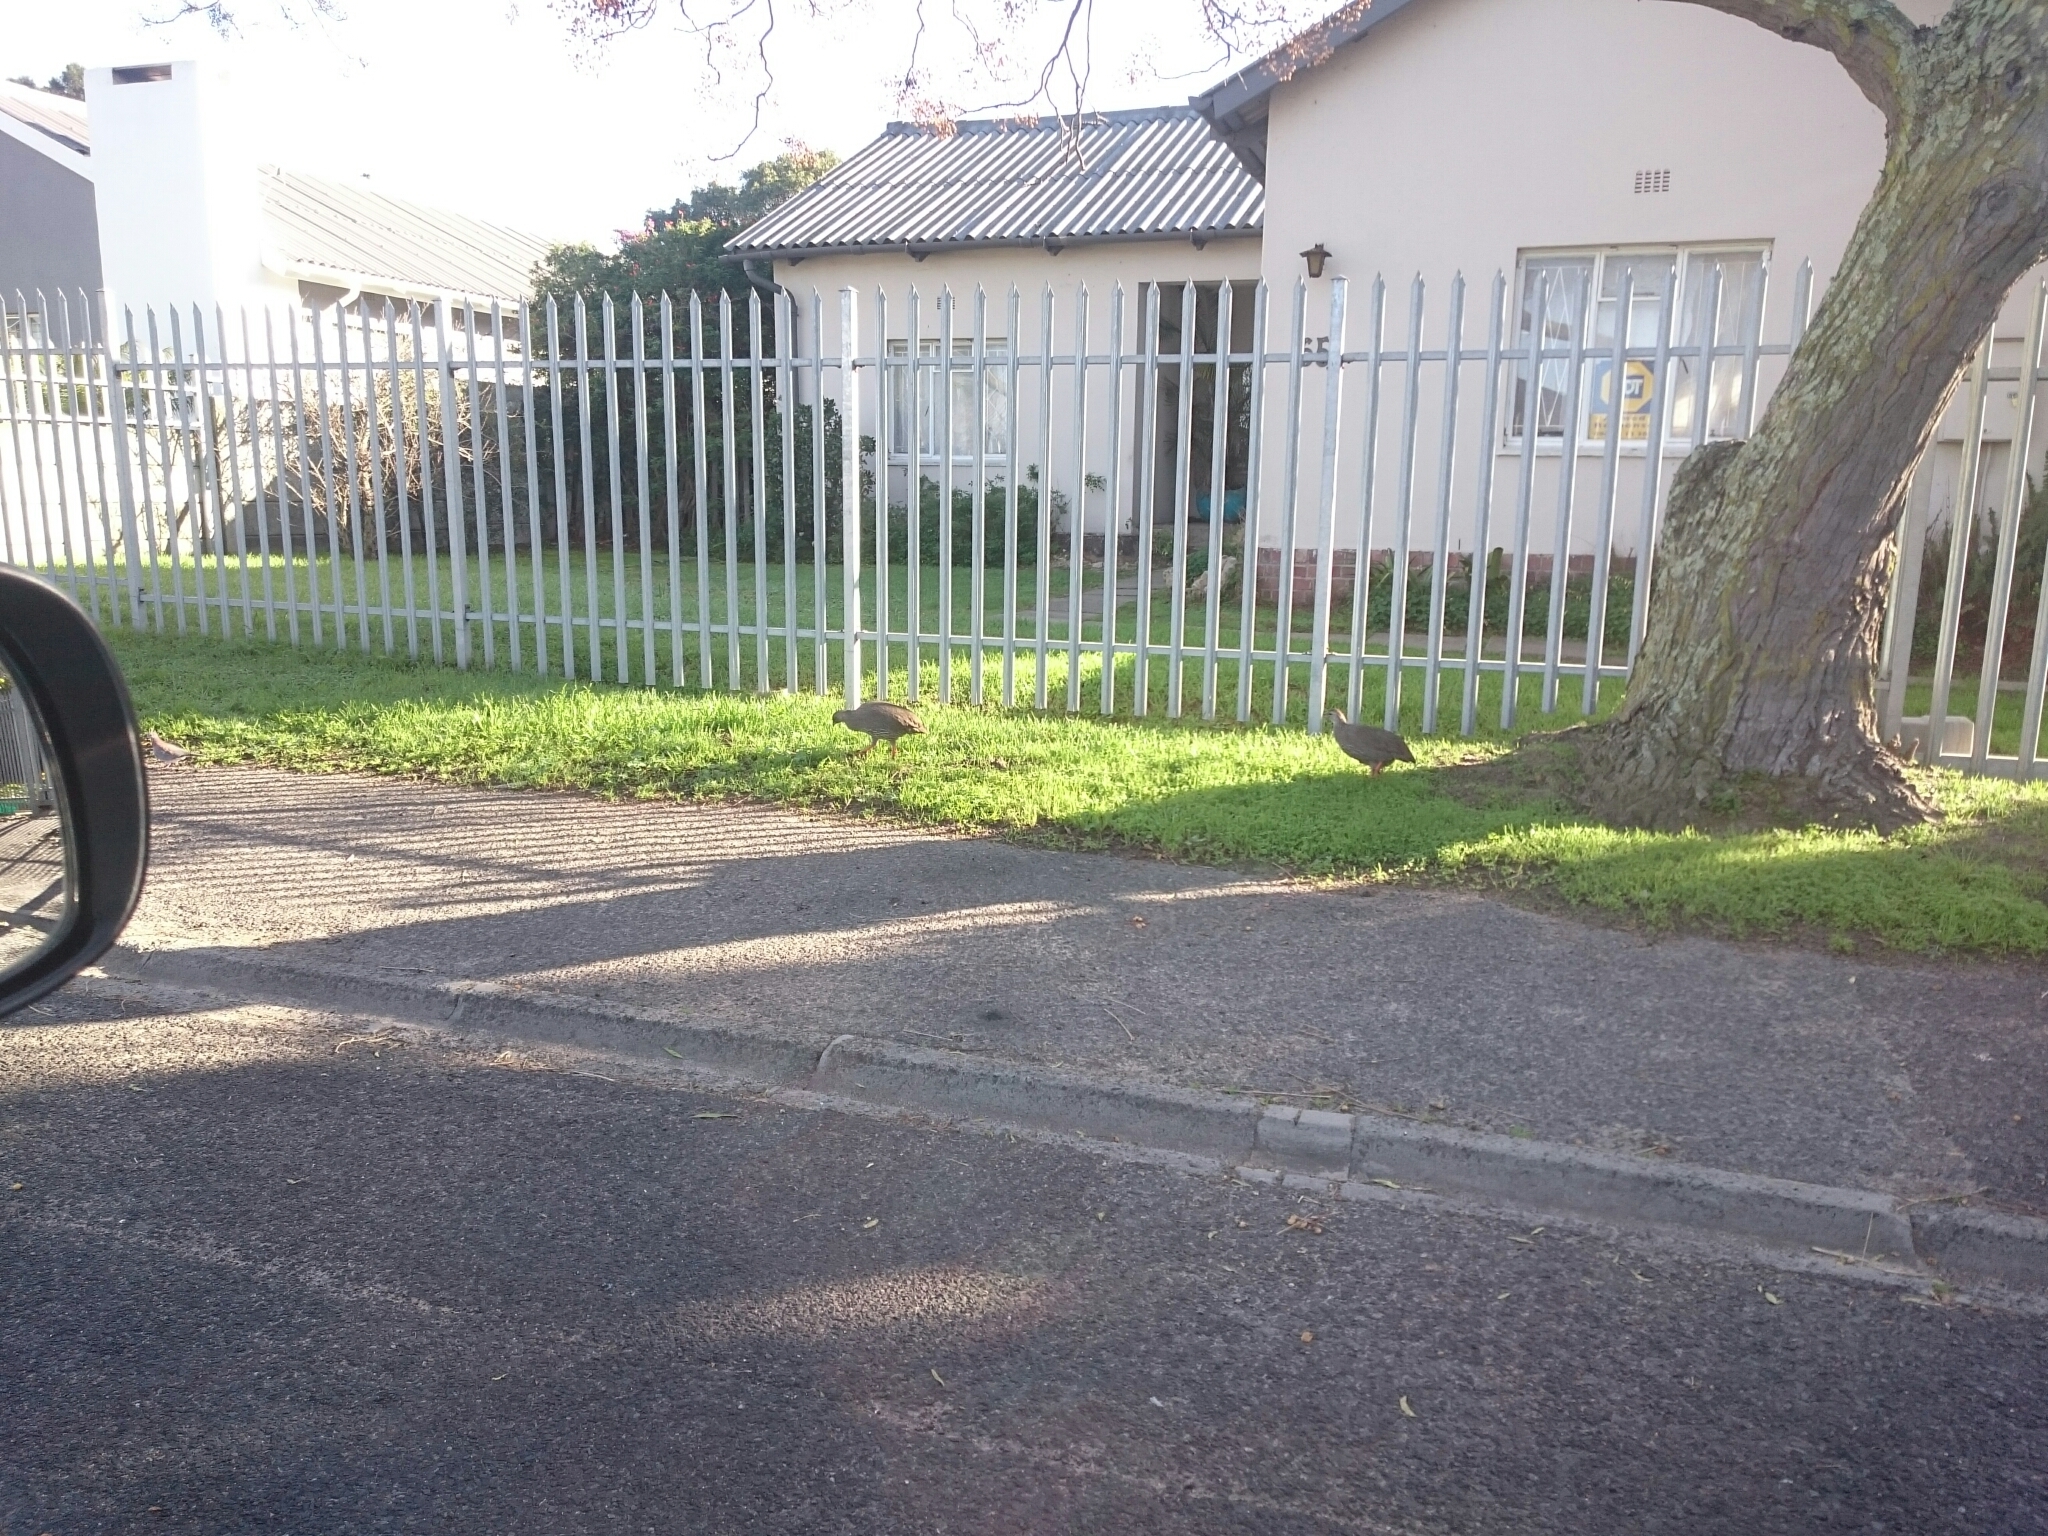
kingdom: Animalia
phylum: Chordata
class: Aves
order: Galliformes
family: Phasianidae
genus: Pternistis
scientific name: Pternistis capensis
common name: Cape spurfowl
